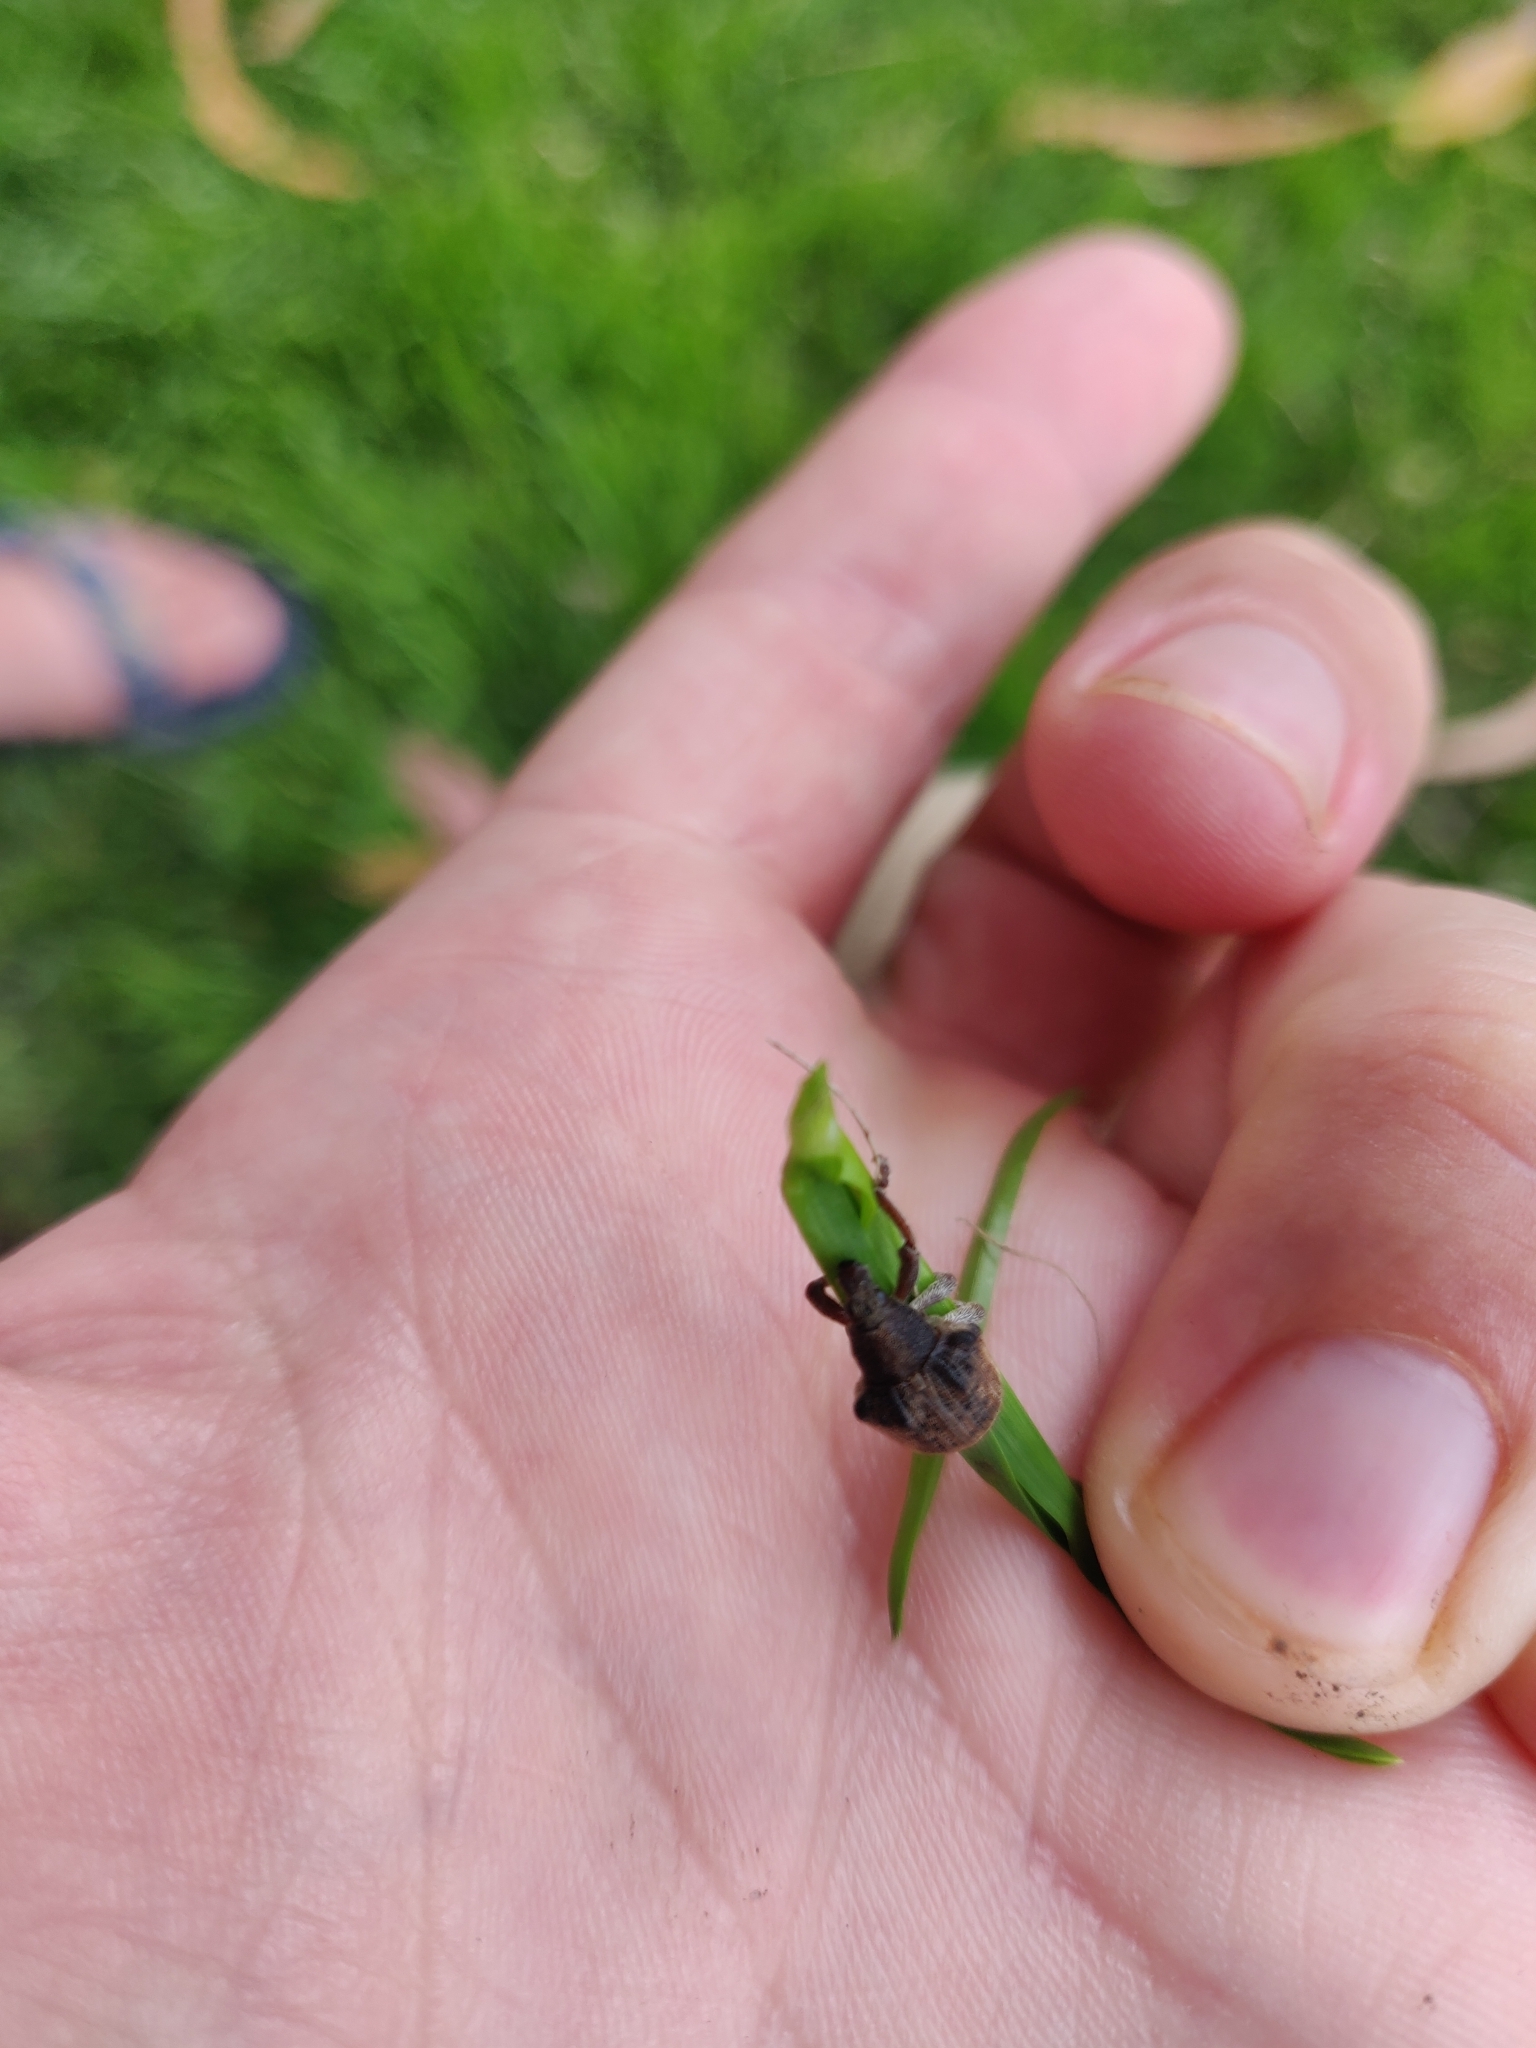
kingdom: Animalia
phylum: Arthropoda
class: Insecta
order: Coleoptera
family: Curculionidae
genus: Gonipterus
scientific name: Gonipterus platensis
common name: Eucalyptus snout beetle
